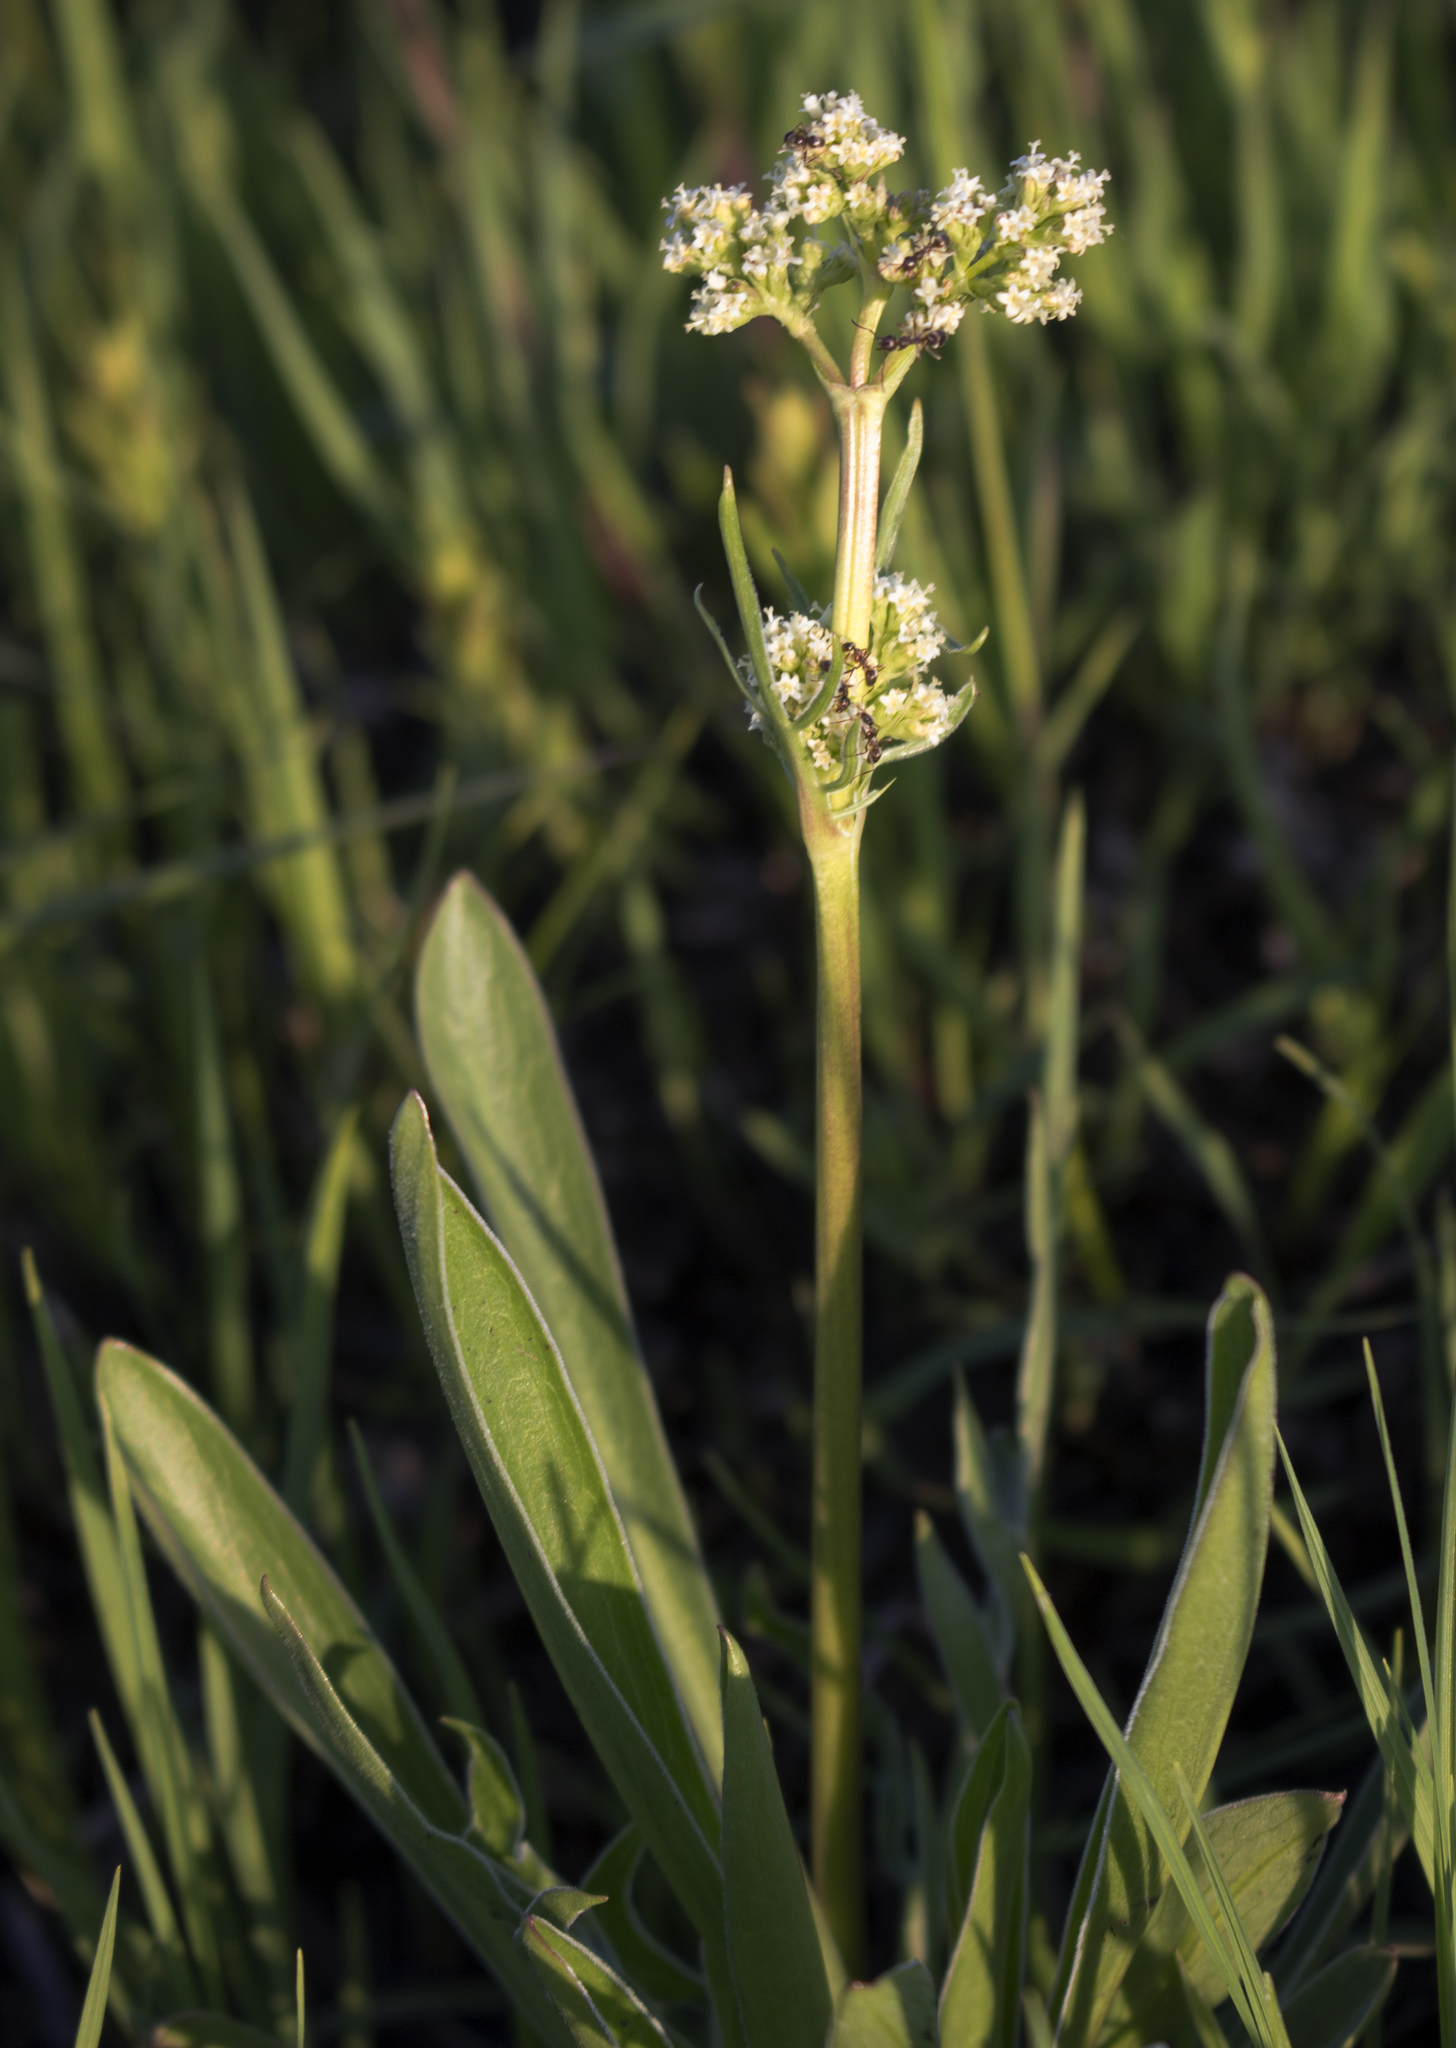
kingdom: Plantae
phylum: Tracheophyta
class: Magnoliopsida
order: Dipsacales
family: Caprifoliaceae
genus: Valeriana
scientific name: Valeriana edulis
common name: Taproot valerian
